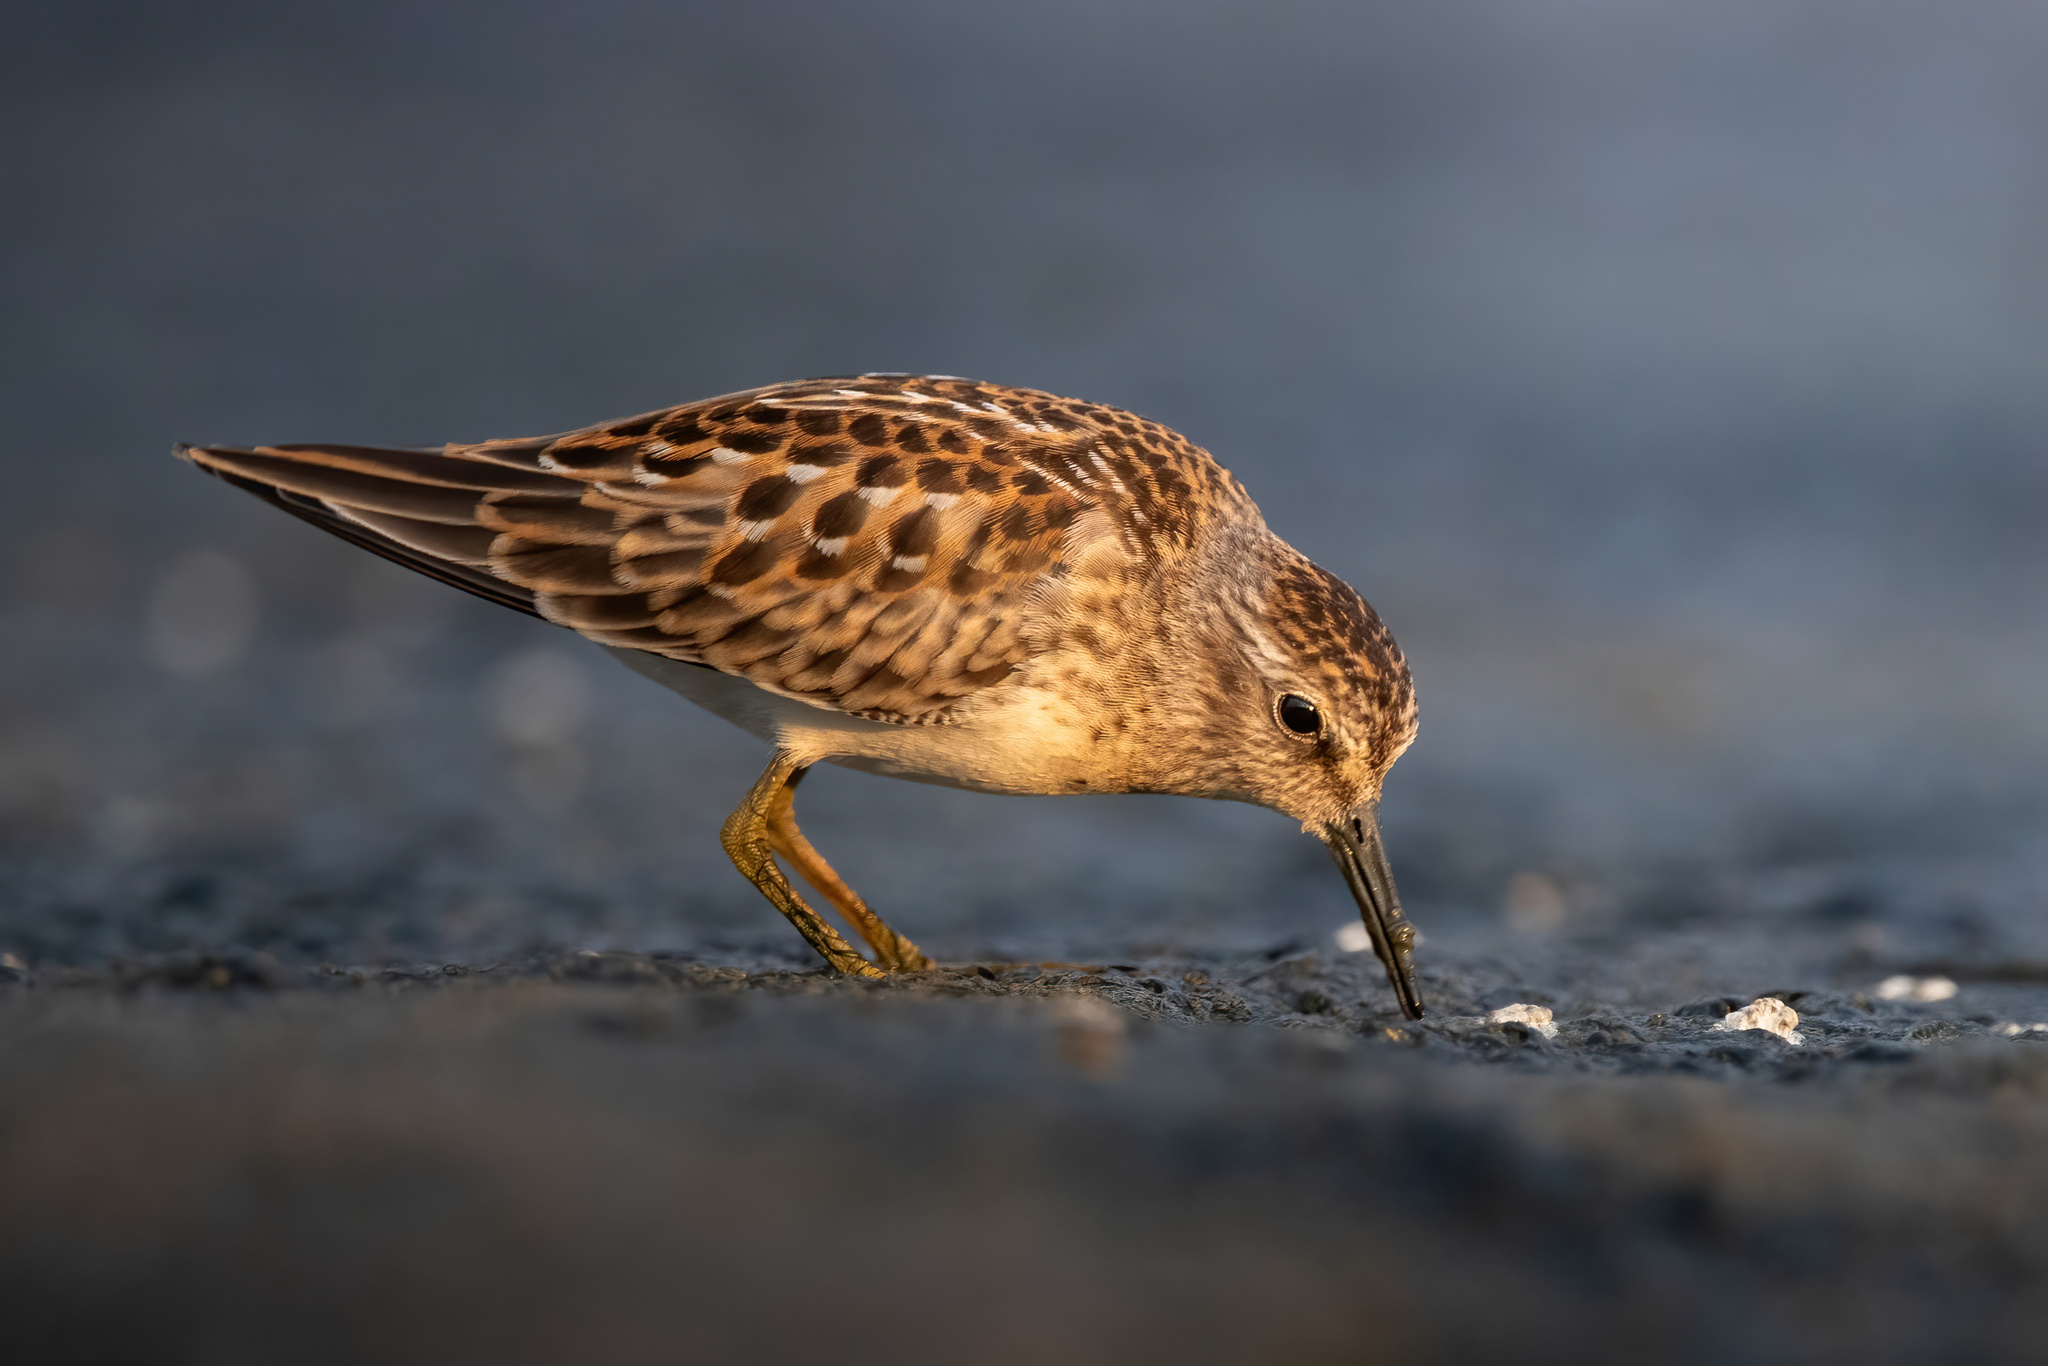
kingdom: Animalia
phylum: Chordata
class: Aves
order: Charadriiformes
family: Scolopacidae
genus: Calidris
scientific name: Calidris minutilla
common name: Least sandpiper
